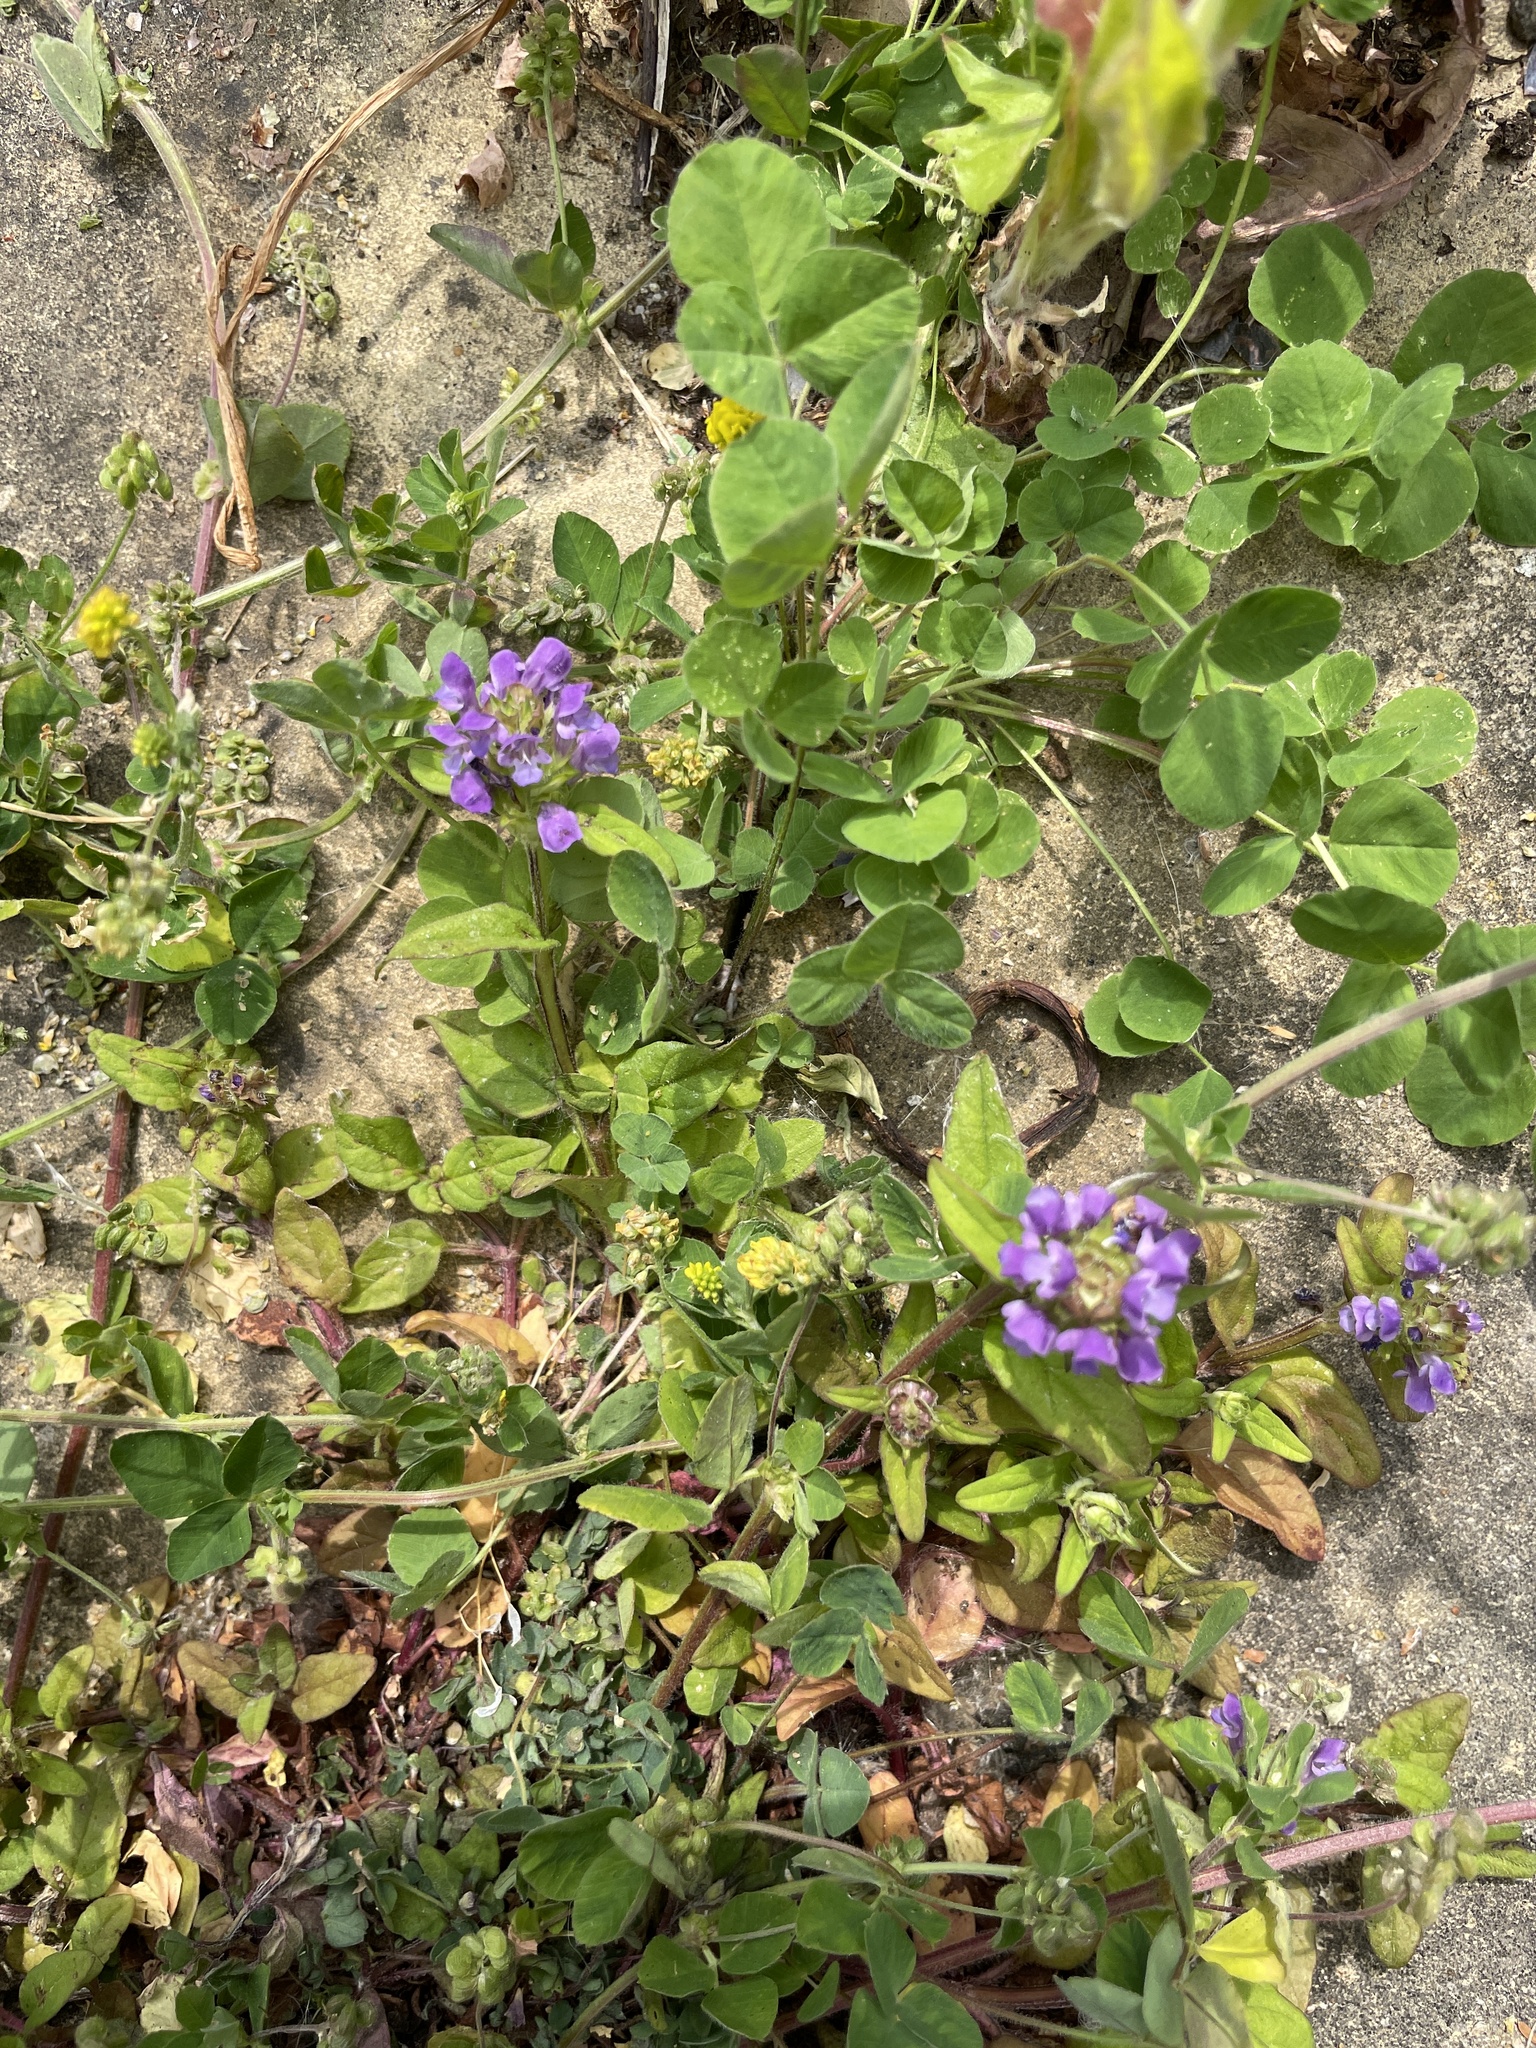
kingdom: Plantae
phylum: Tracheophyta
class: Magnoliopsida
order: Lamiales
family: Lamiaceae
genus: Prunella
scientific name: Prunella vulgaris
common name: Heal-all
